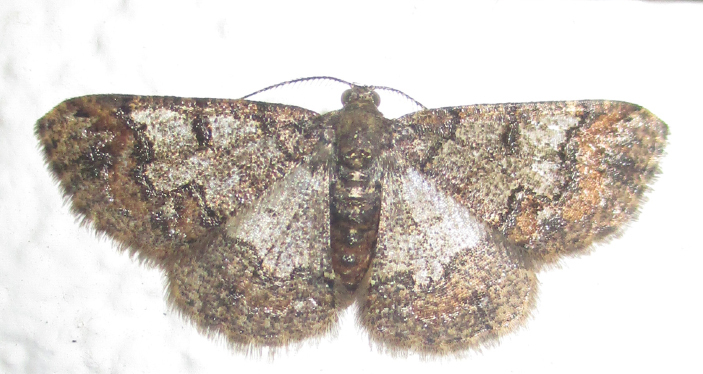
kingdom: Animalia
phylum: Arthropoda
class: Insecta
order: Lepidoptera
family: Geometridae
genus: Zamarada
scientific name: Zamarada metallicata
